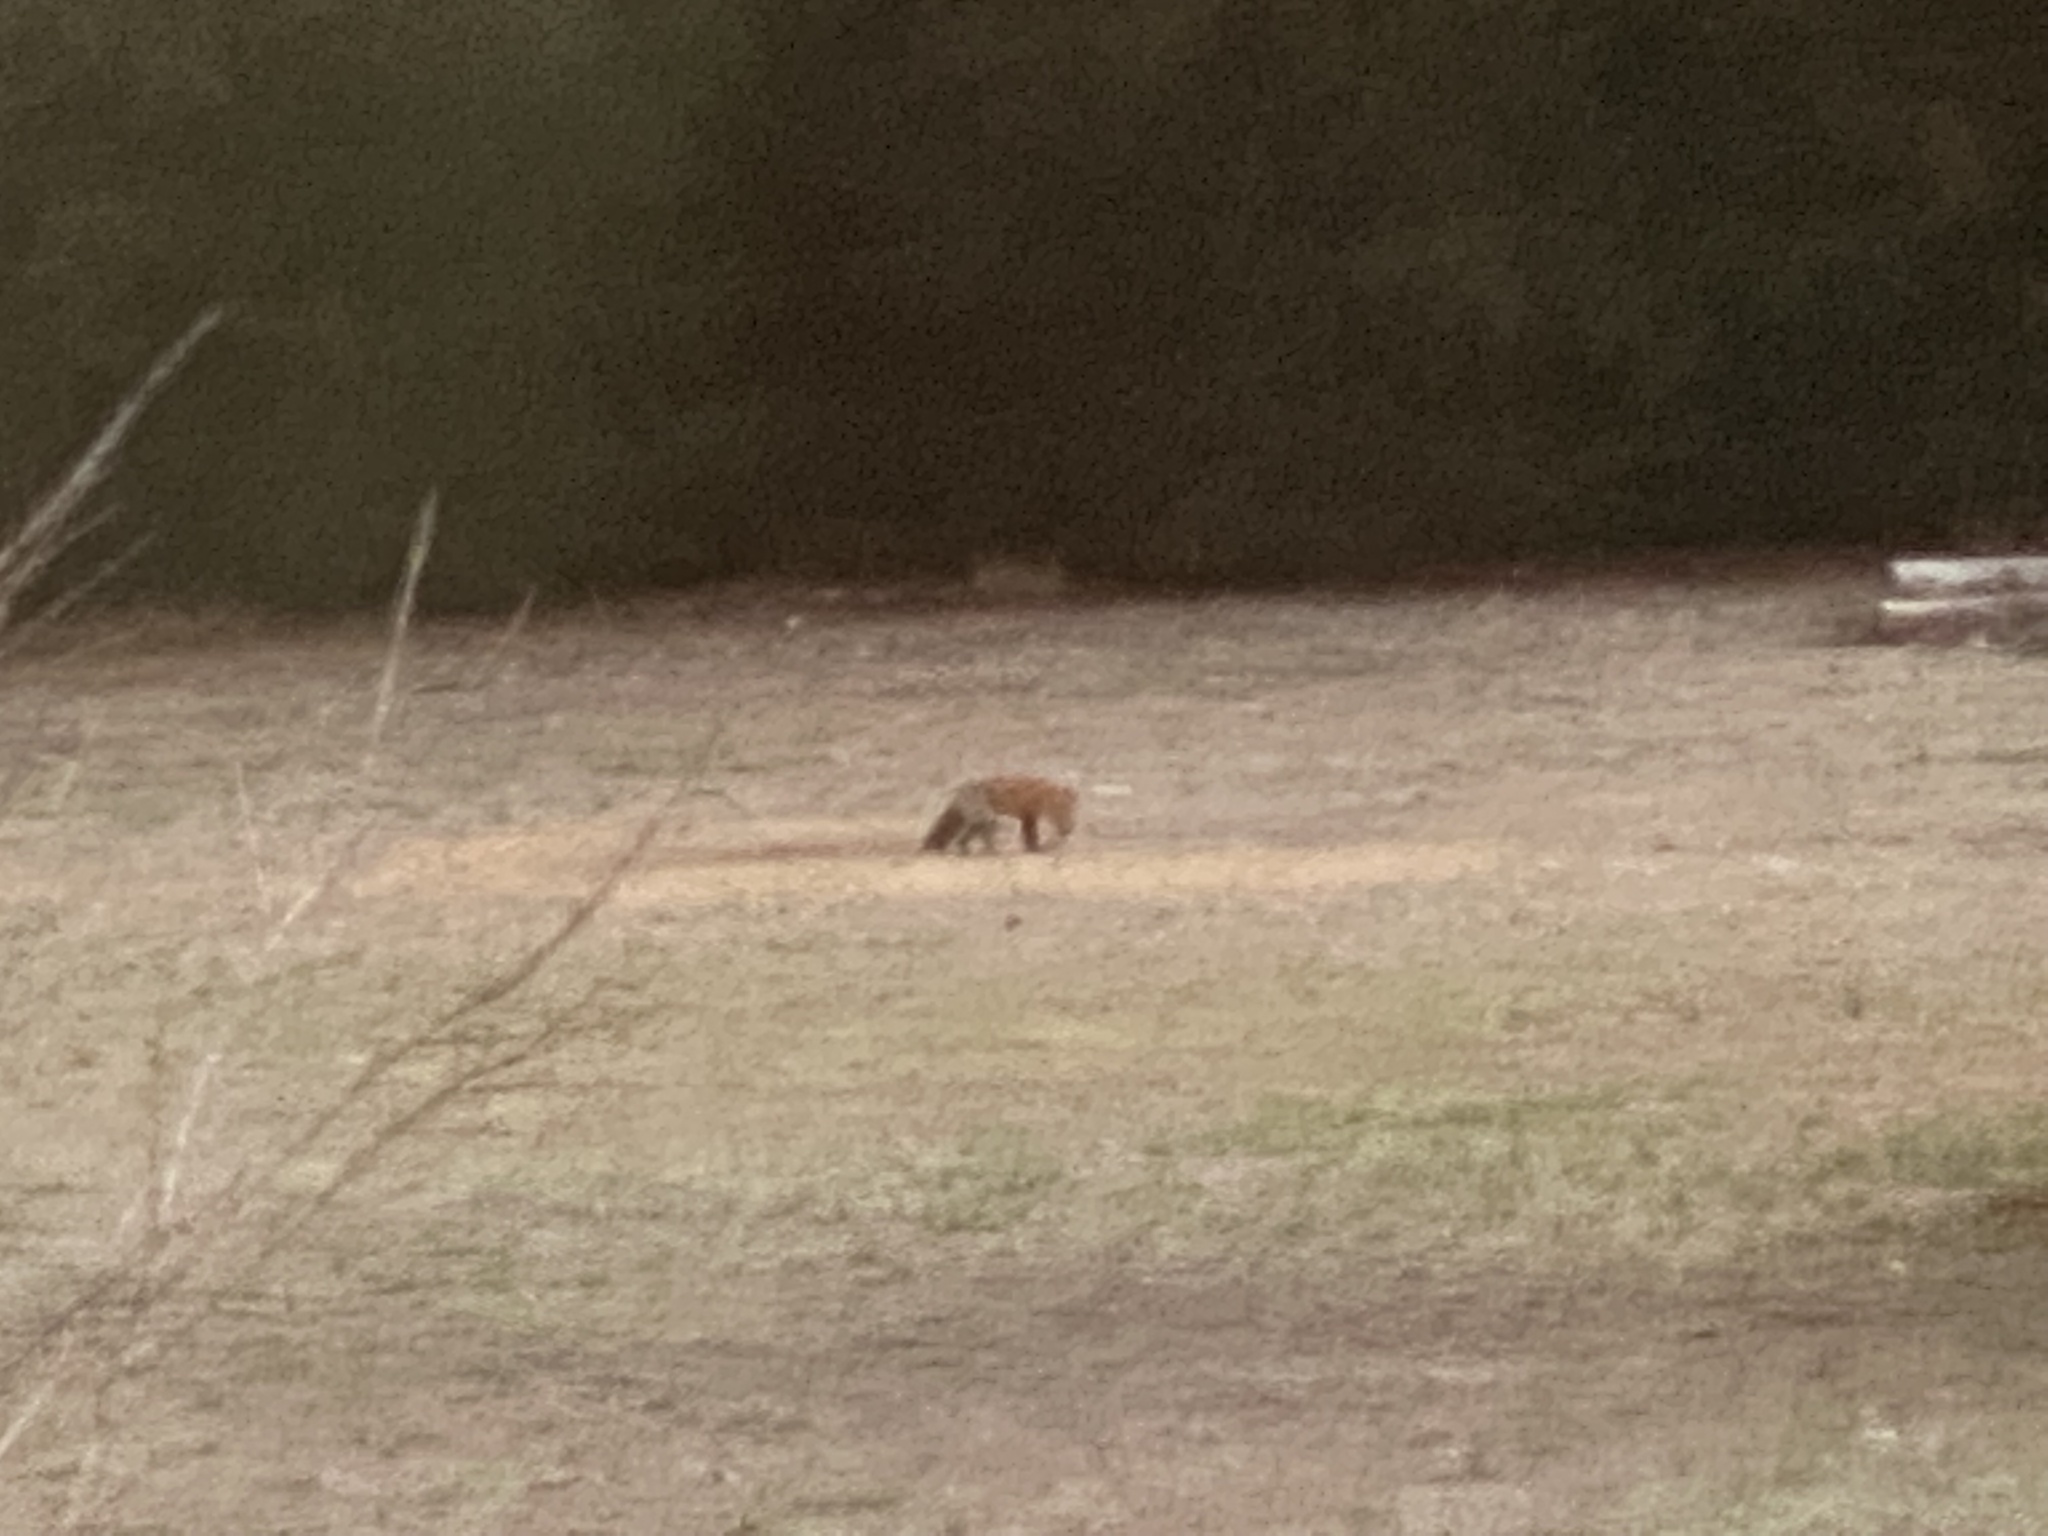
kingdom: Animalia
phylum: Chordata
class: Mammalia
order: Carnivora
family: Canidae
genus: Vulpes
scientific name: Vulpes vulpes
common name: Red fox
